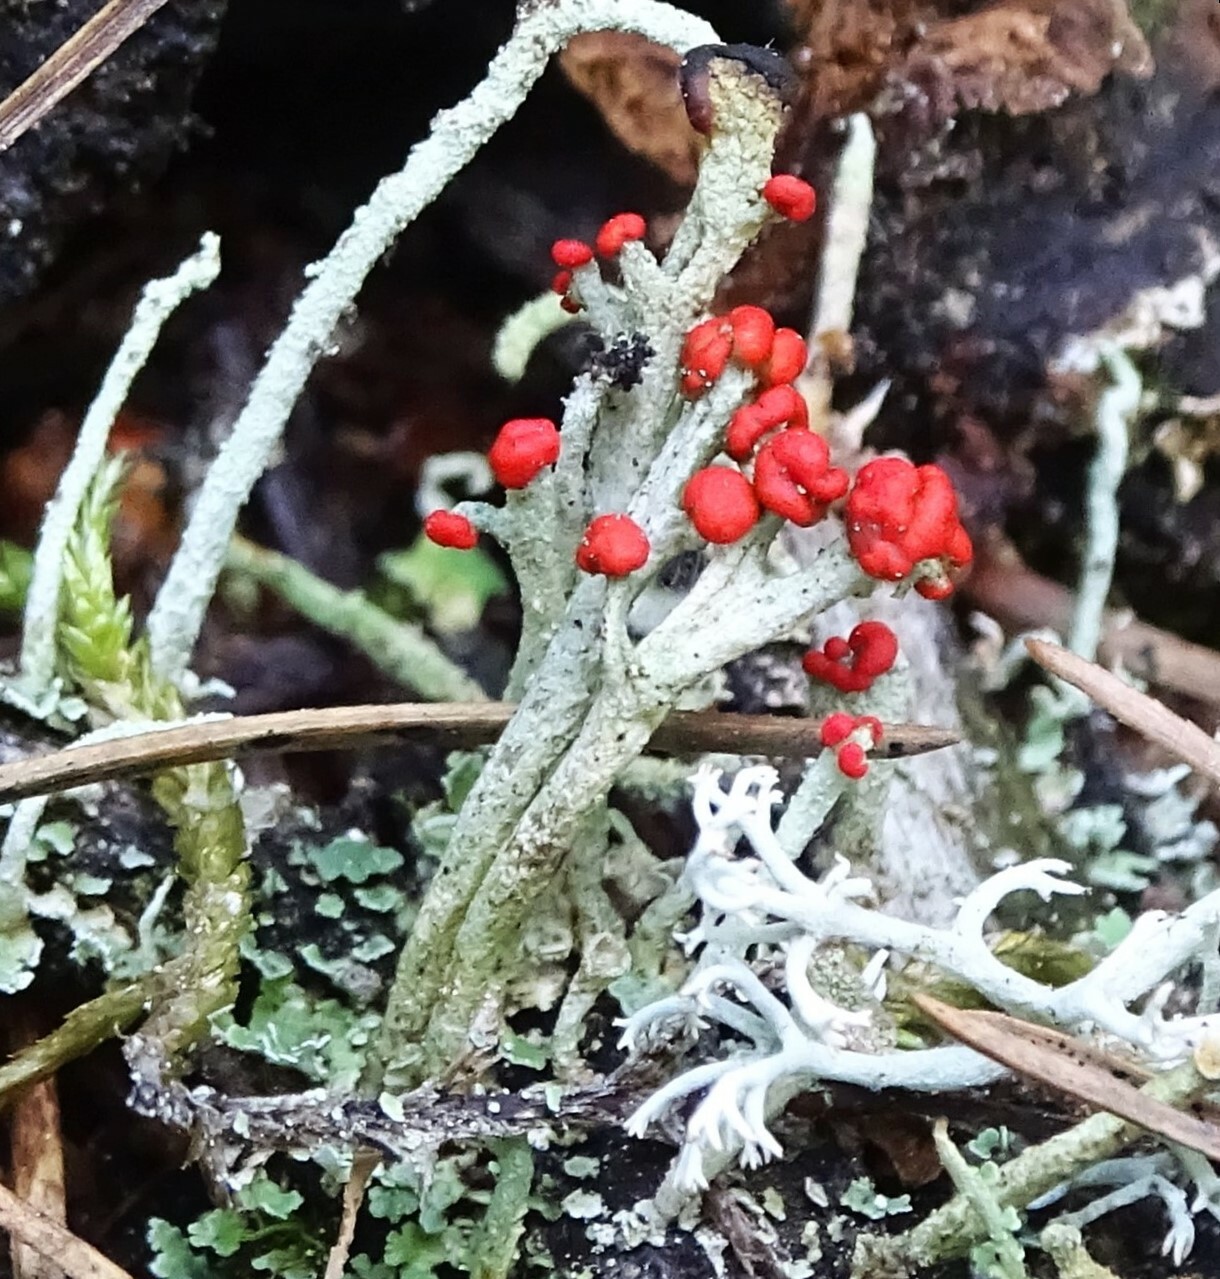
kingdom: Fungi
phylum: Ascomycota
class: Lecanoromycetes
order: Lecanorales
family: Cladoniaceae
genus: Cladonia
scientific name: Cladonia cristatella
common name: British soldier lichen
